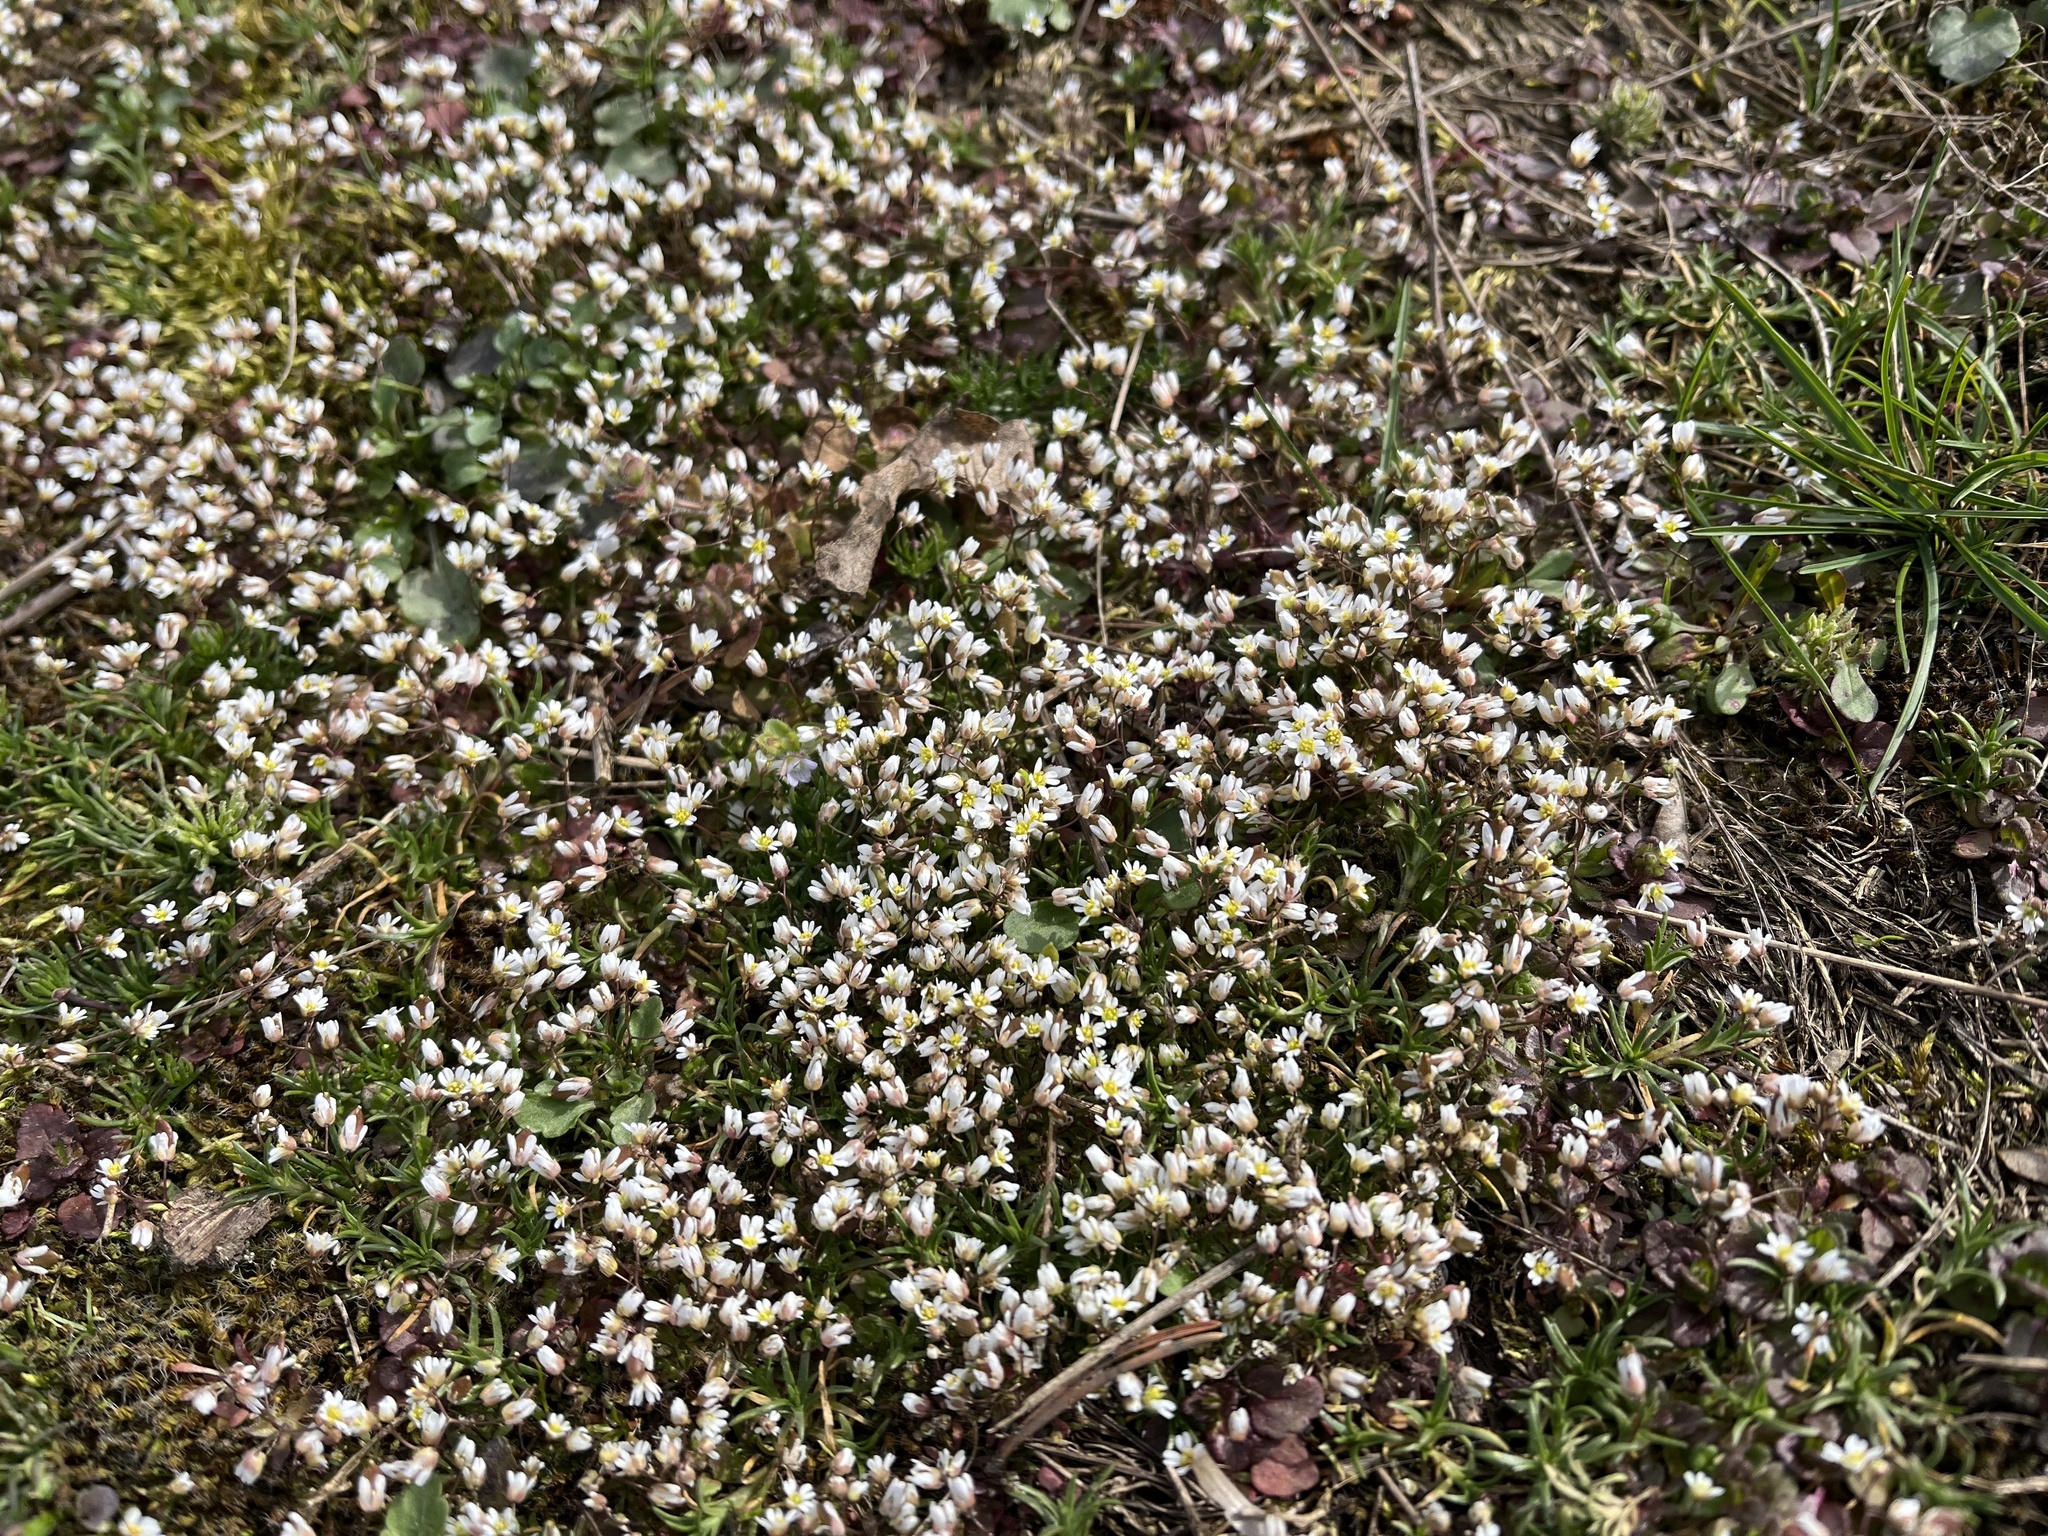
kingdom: Plantae
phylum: Tracheophyta
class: Magnoliopsida
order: Brassicales
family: Brassicaceae
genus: Draba
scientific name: Draba verna
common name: Spring draba
